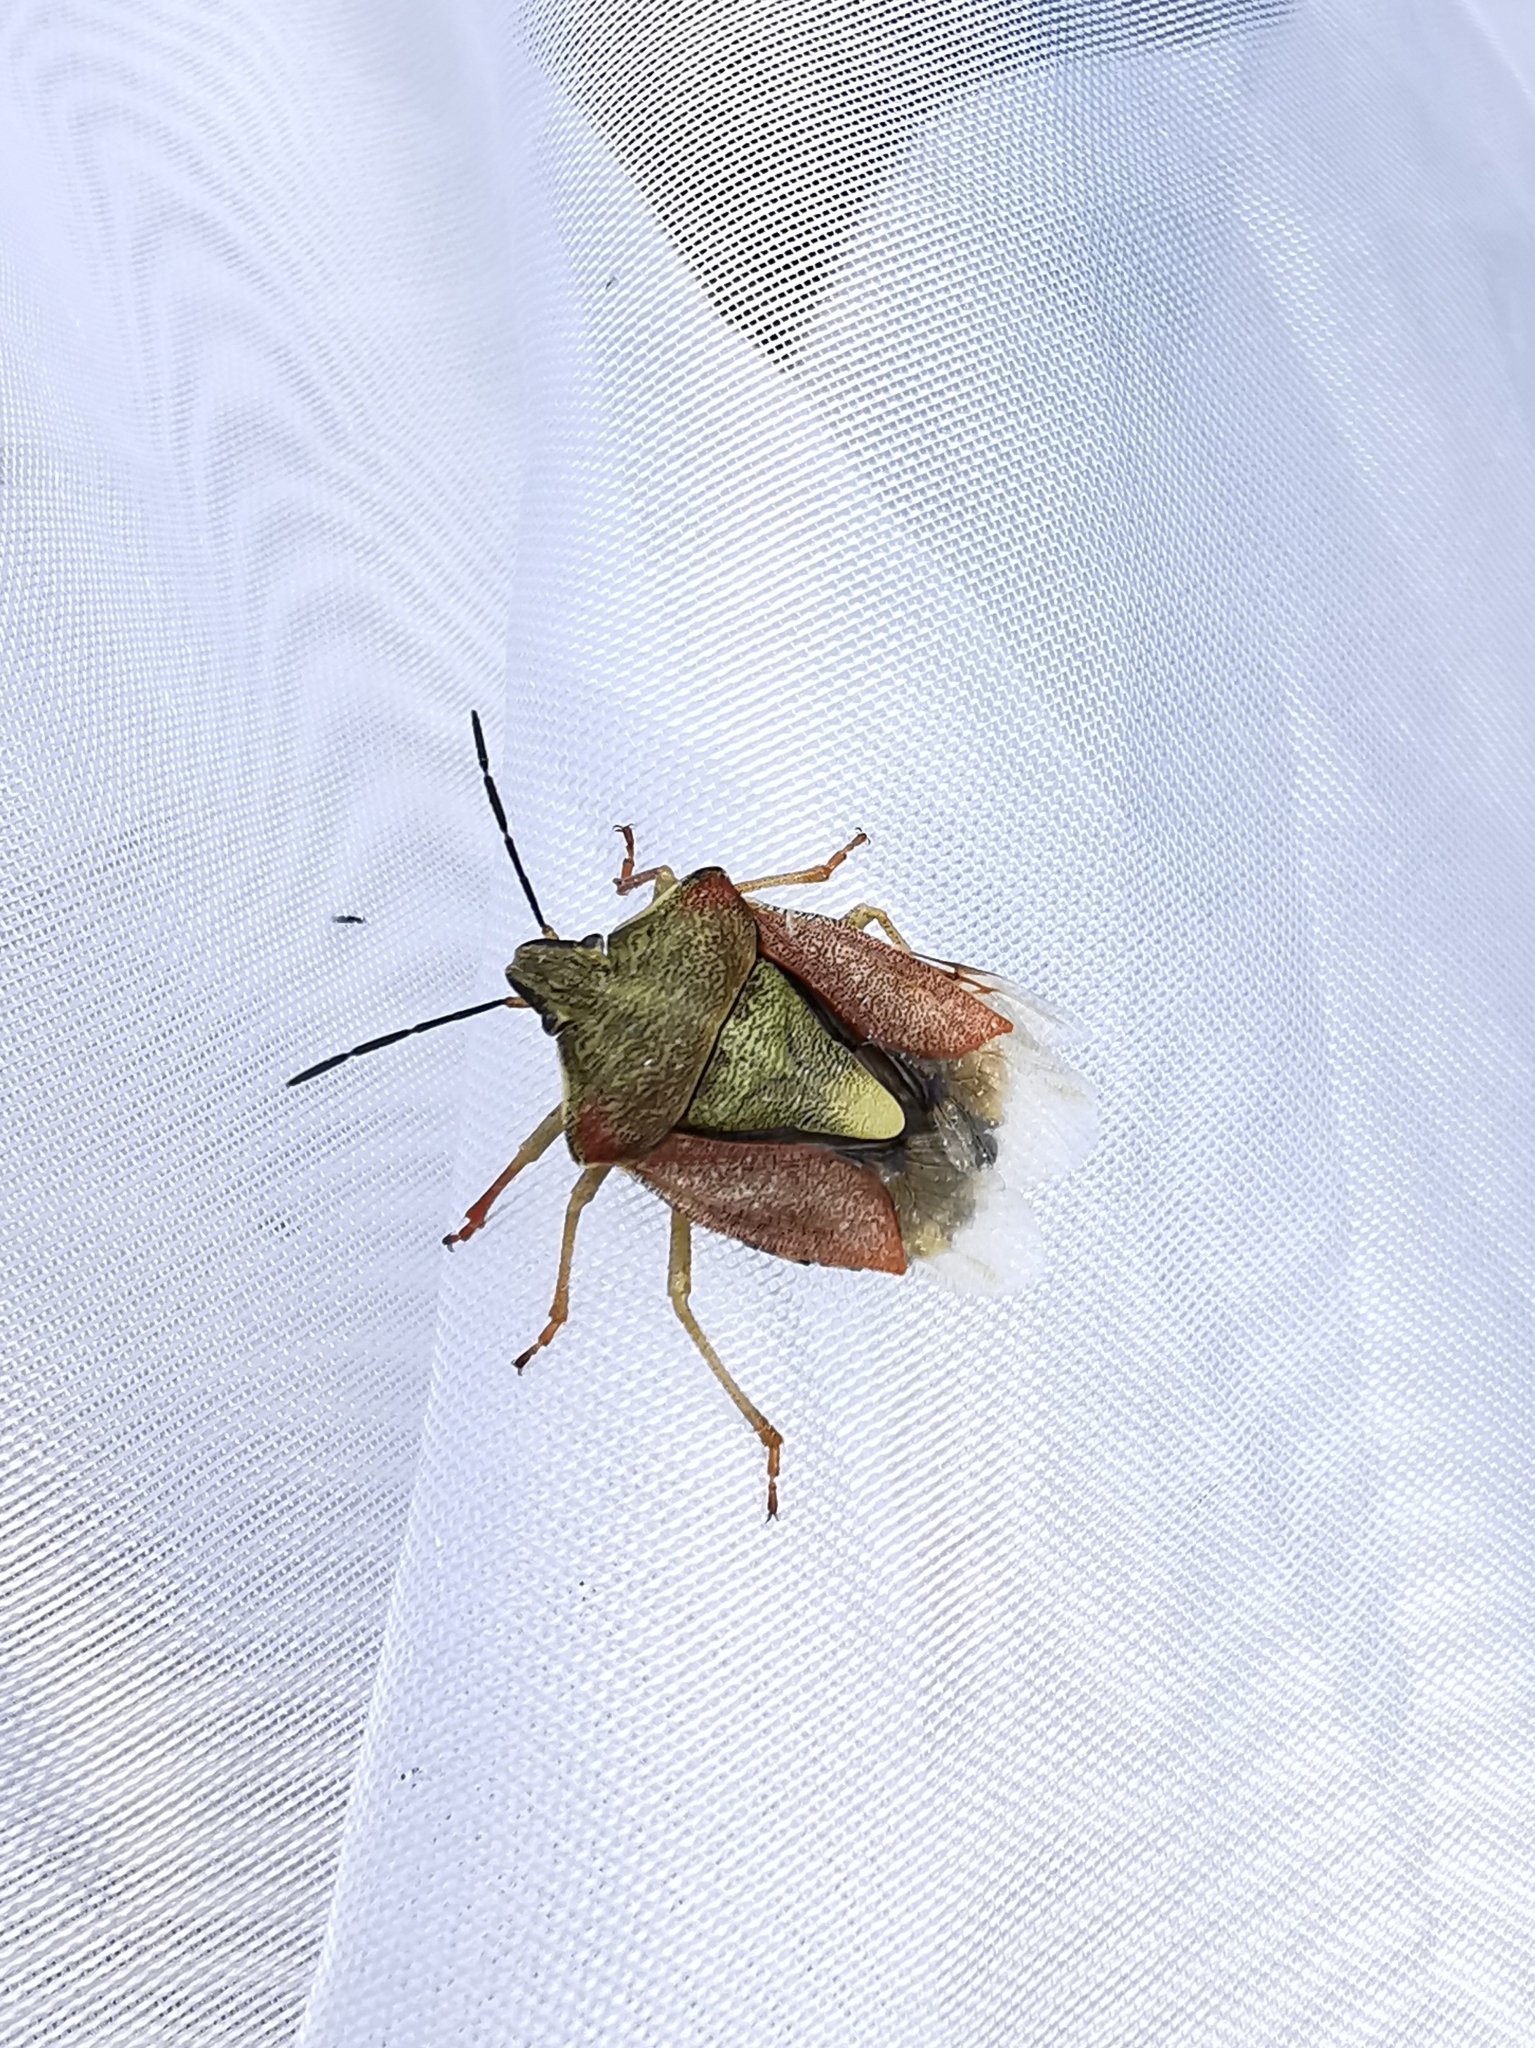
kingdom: Animalia
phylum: Arthropoda
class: Insecta
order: Hemiptera
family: Pentatomidae
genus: Carpocoris
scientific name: Carpocoris purpureipennis
